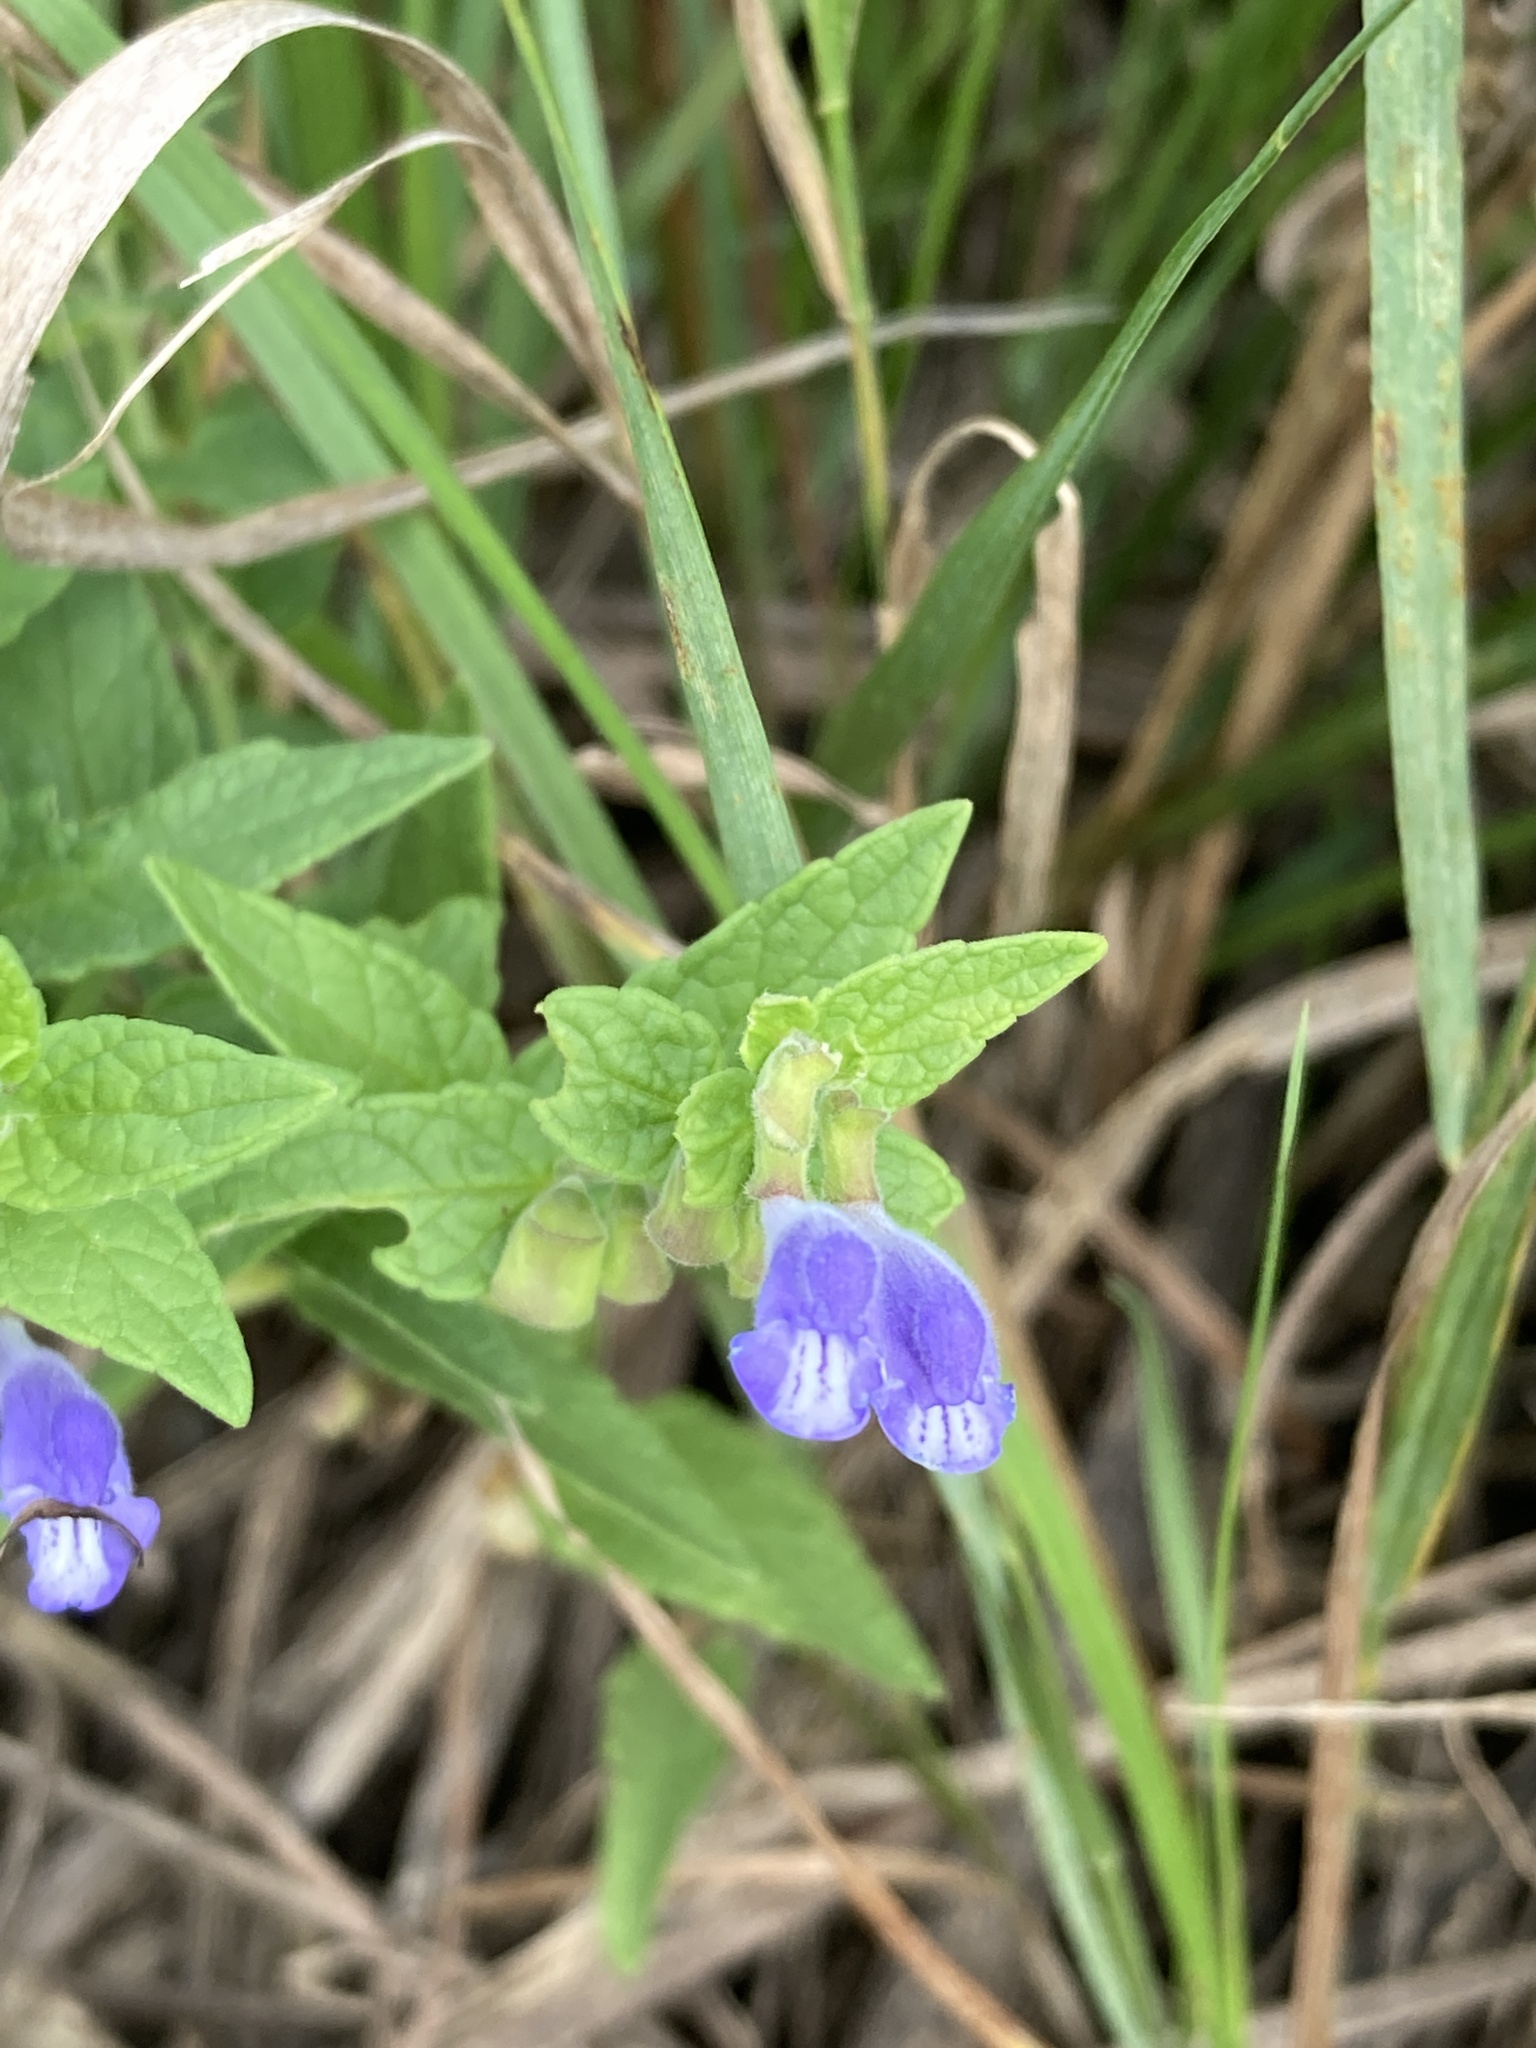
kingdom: Plantae
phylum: Tracheophyta
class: Magnoliopsida
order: Lamiales
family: Lamiaceae
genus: Scutellaria
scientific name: Scutellaria galericulata
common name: Skullcap
